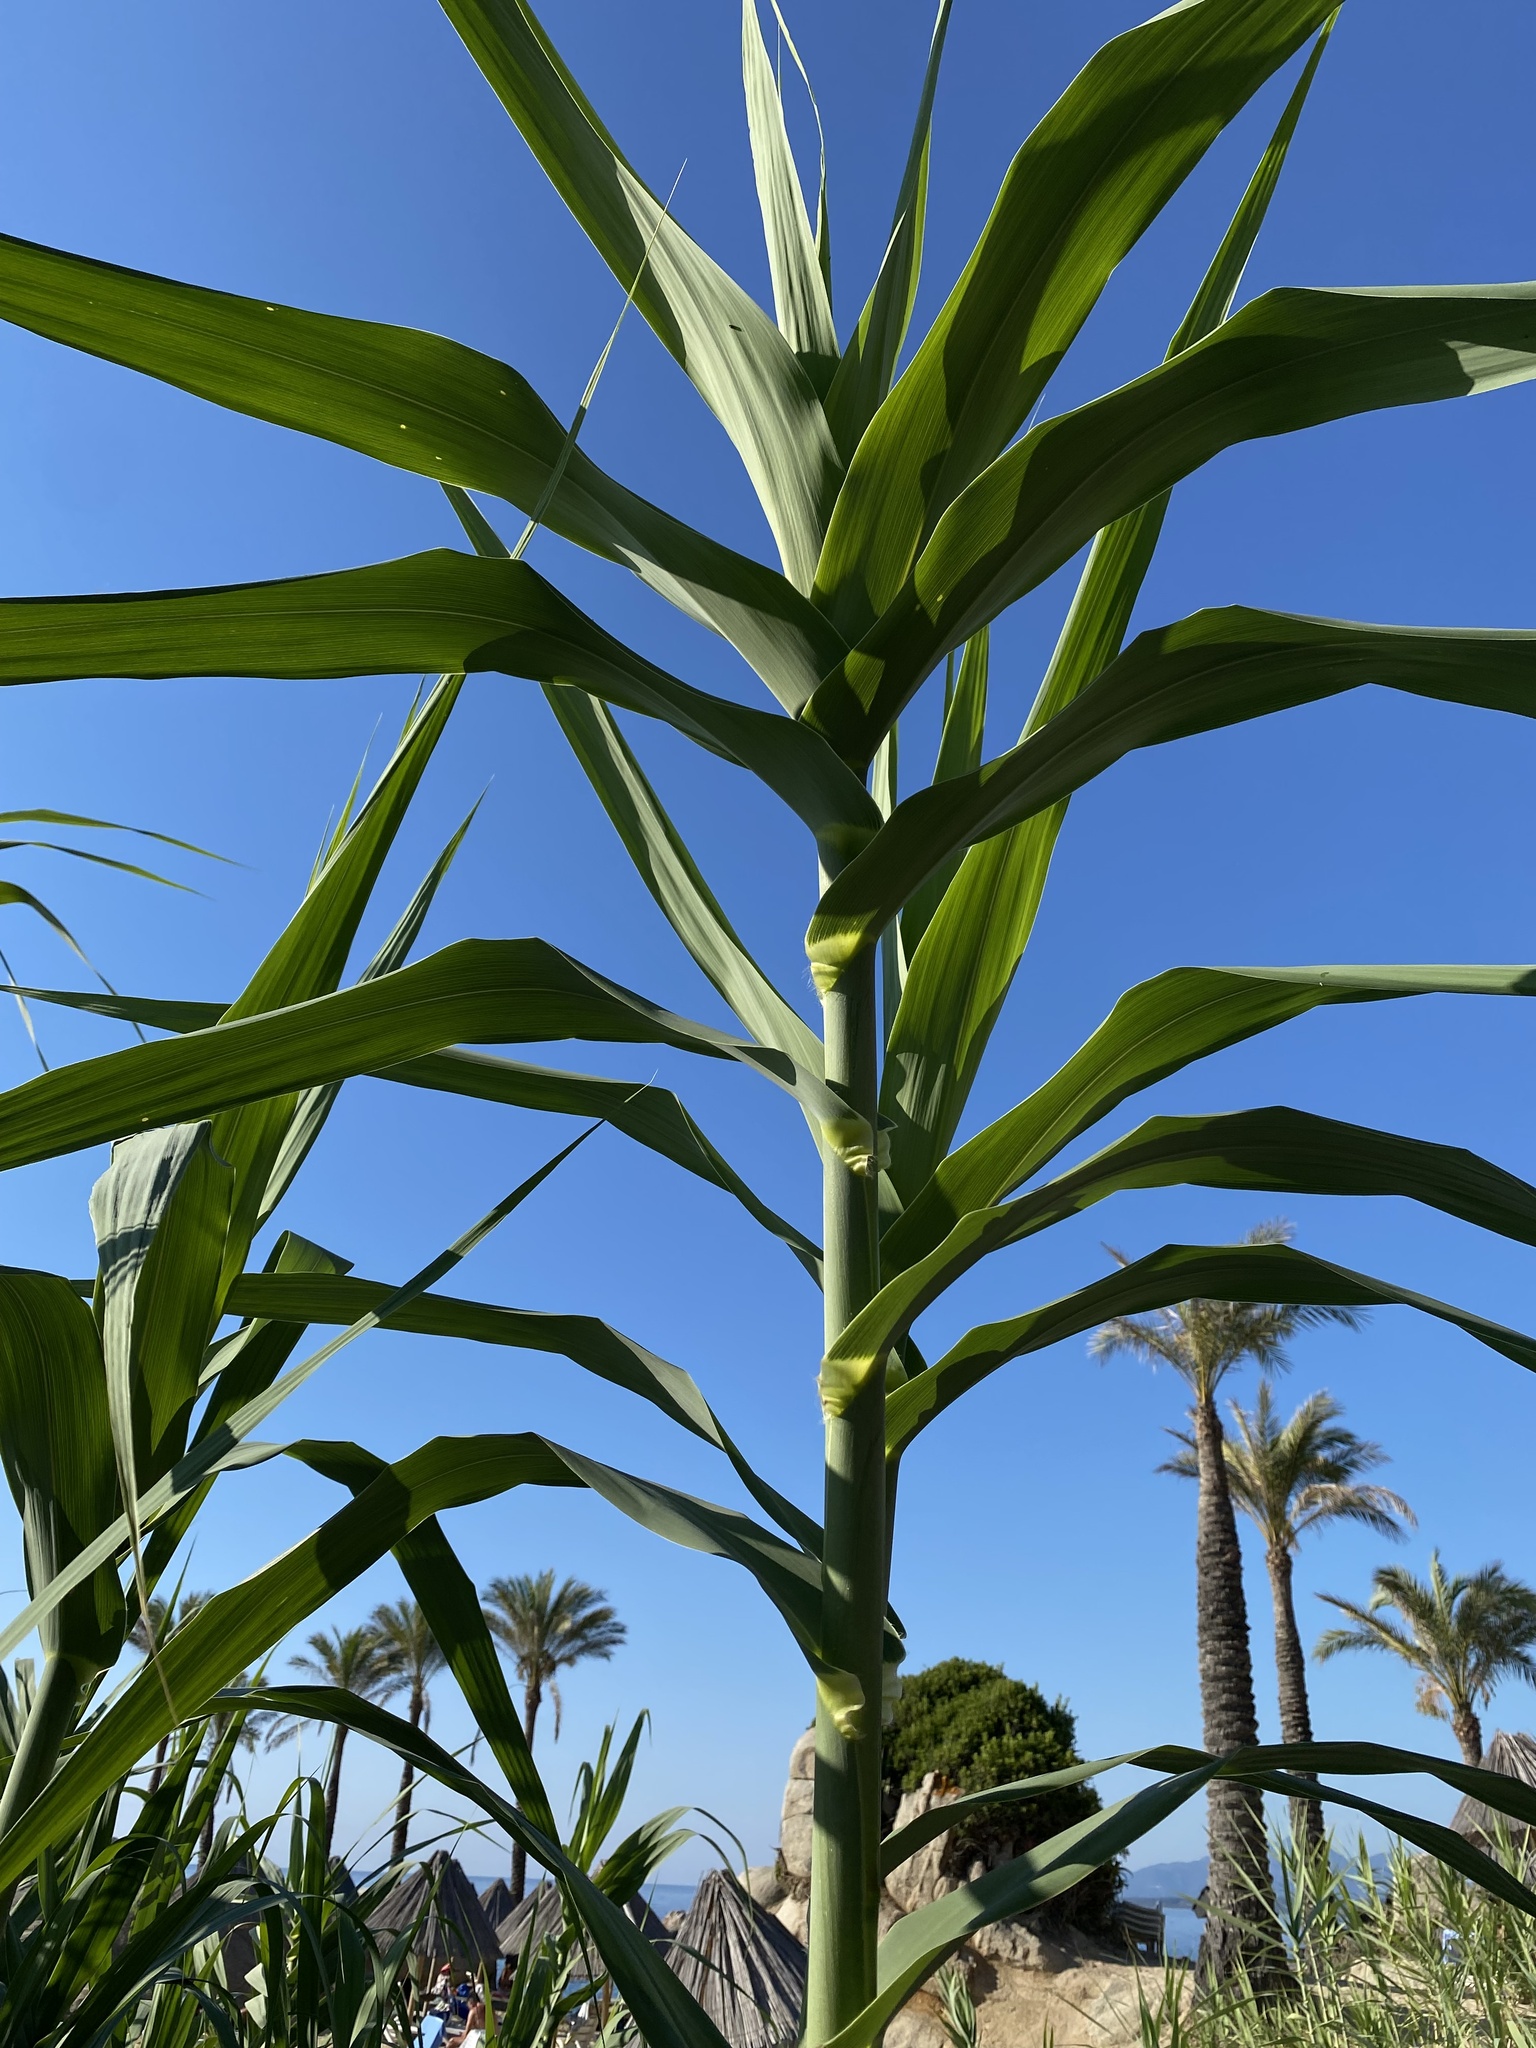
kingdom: Plantae
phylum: Tracheophyta
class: Liliopsida
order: Poales
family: Poaceae
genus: Arundo
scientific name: Arundo donax
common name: Giant reed
